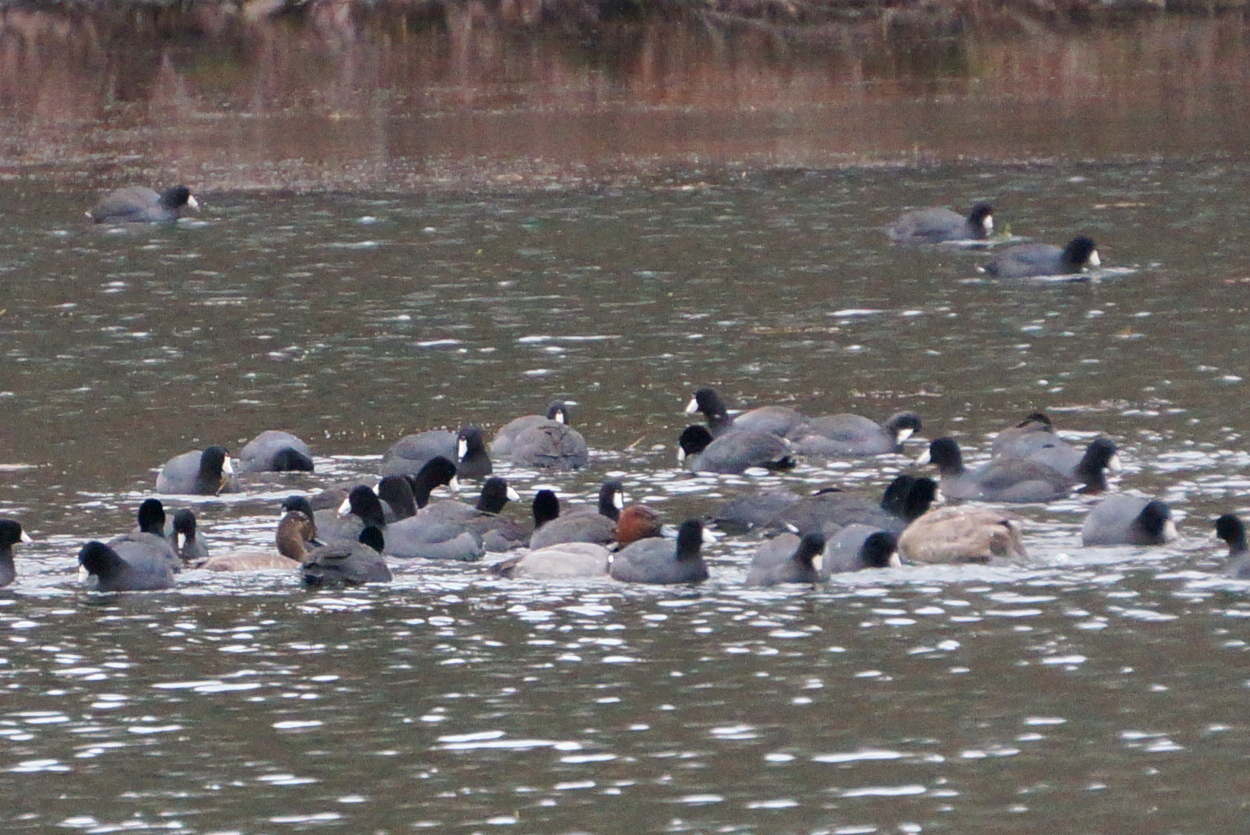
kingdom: Animalia
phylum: Chordata
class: Aves
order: Anseriformes
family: Anatidae
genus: Aythya
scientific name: Aythya americana
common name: Redhead
